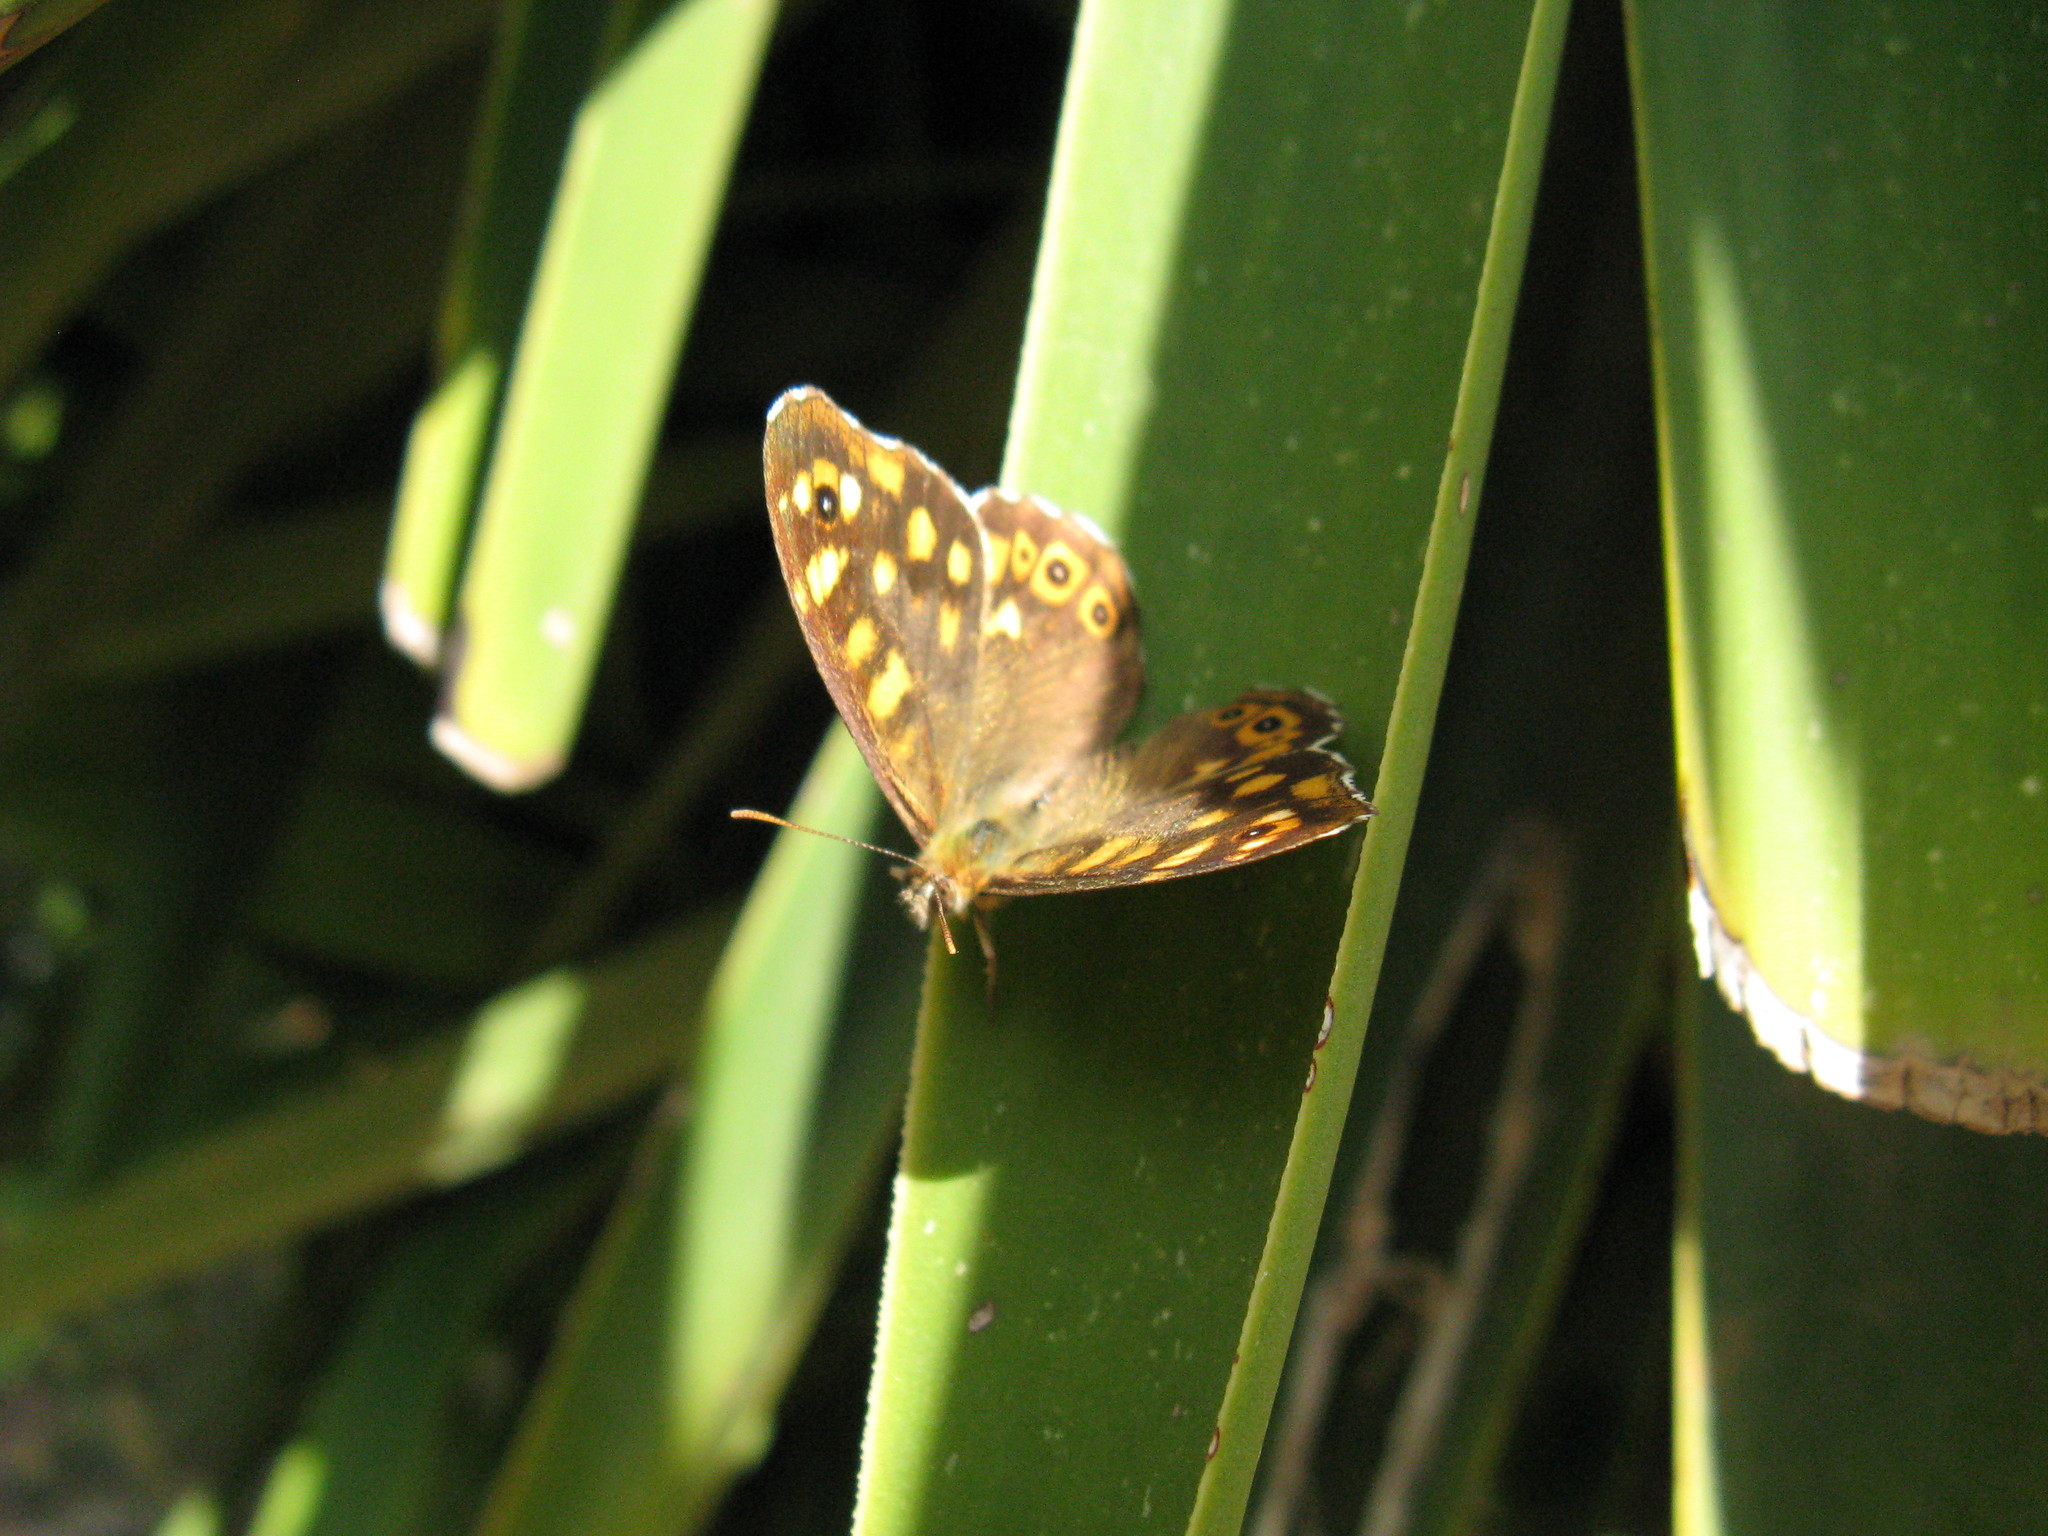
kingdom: Animalia
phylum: Arthropoda
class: Insecta
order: Lepidoptera
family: Nymphalidae
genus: Pararge
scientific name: Pararge aegeria
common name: Speckled wood
